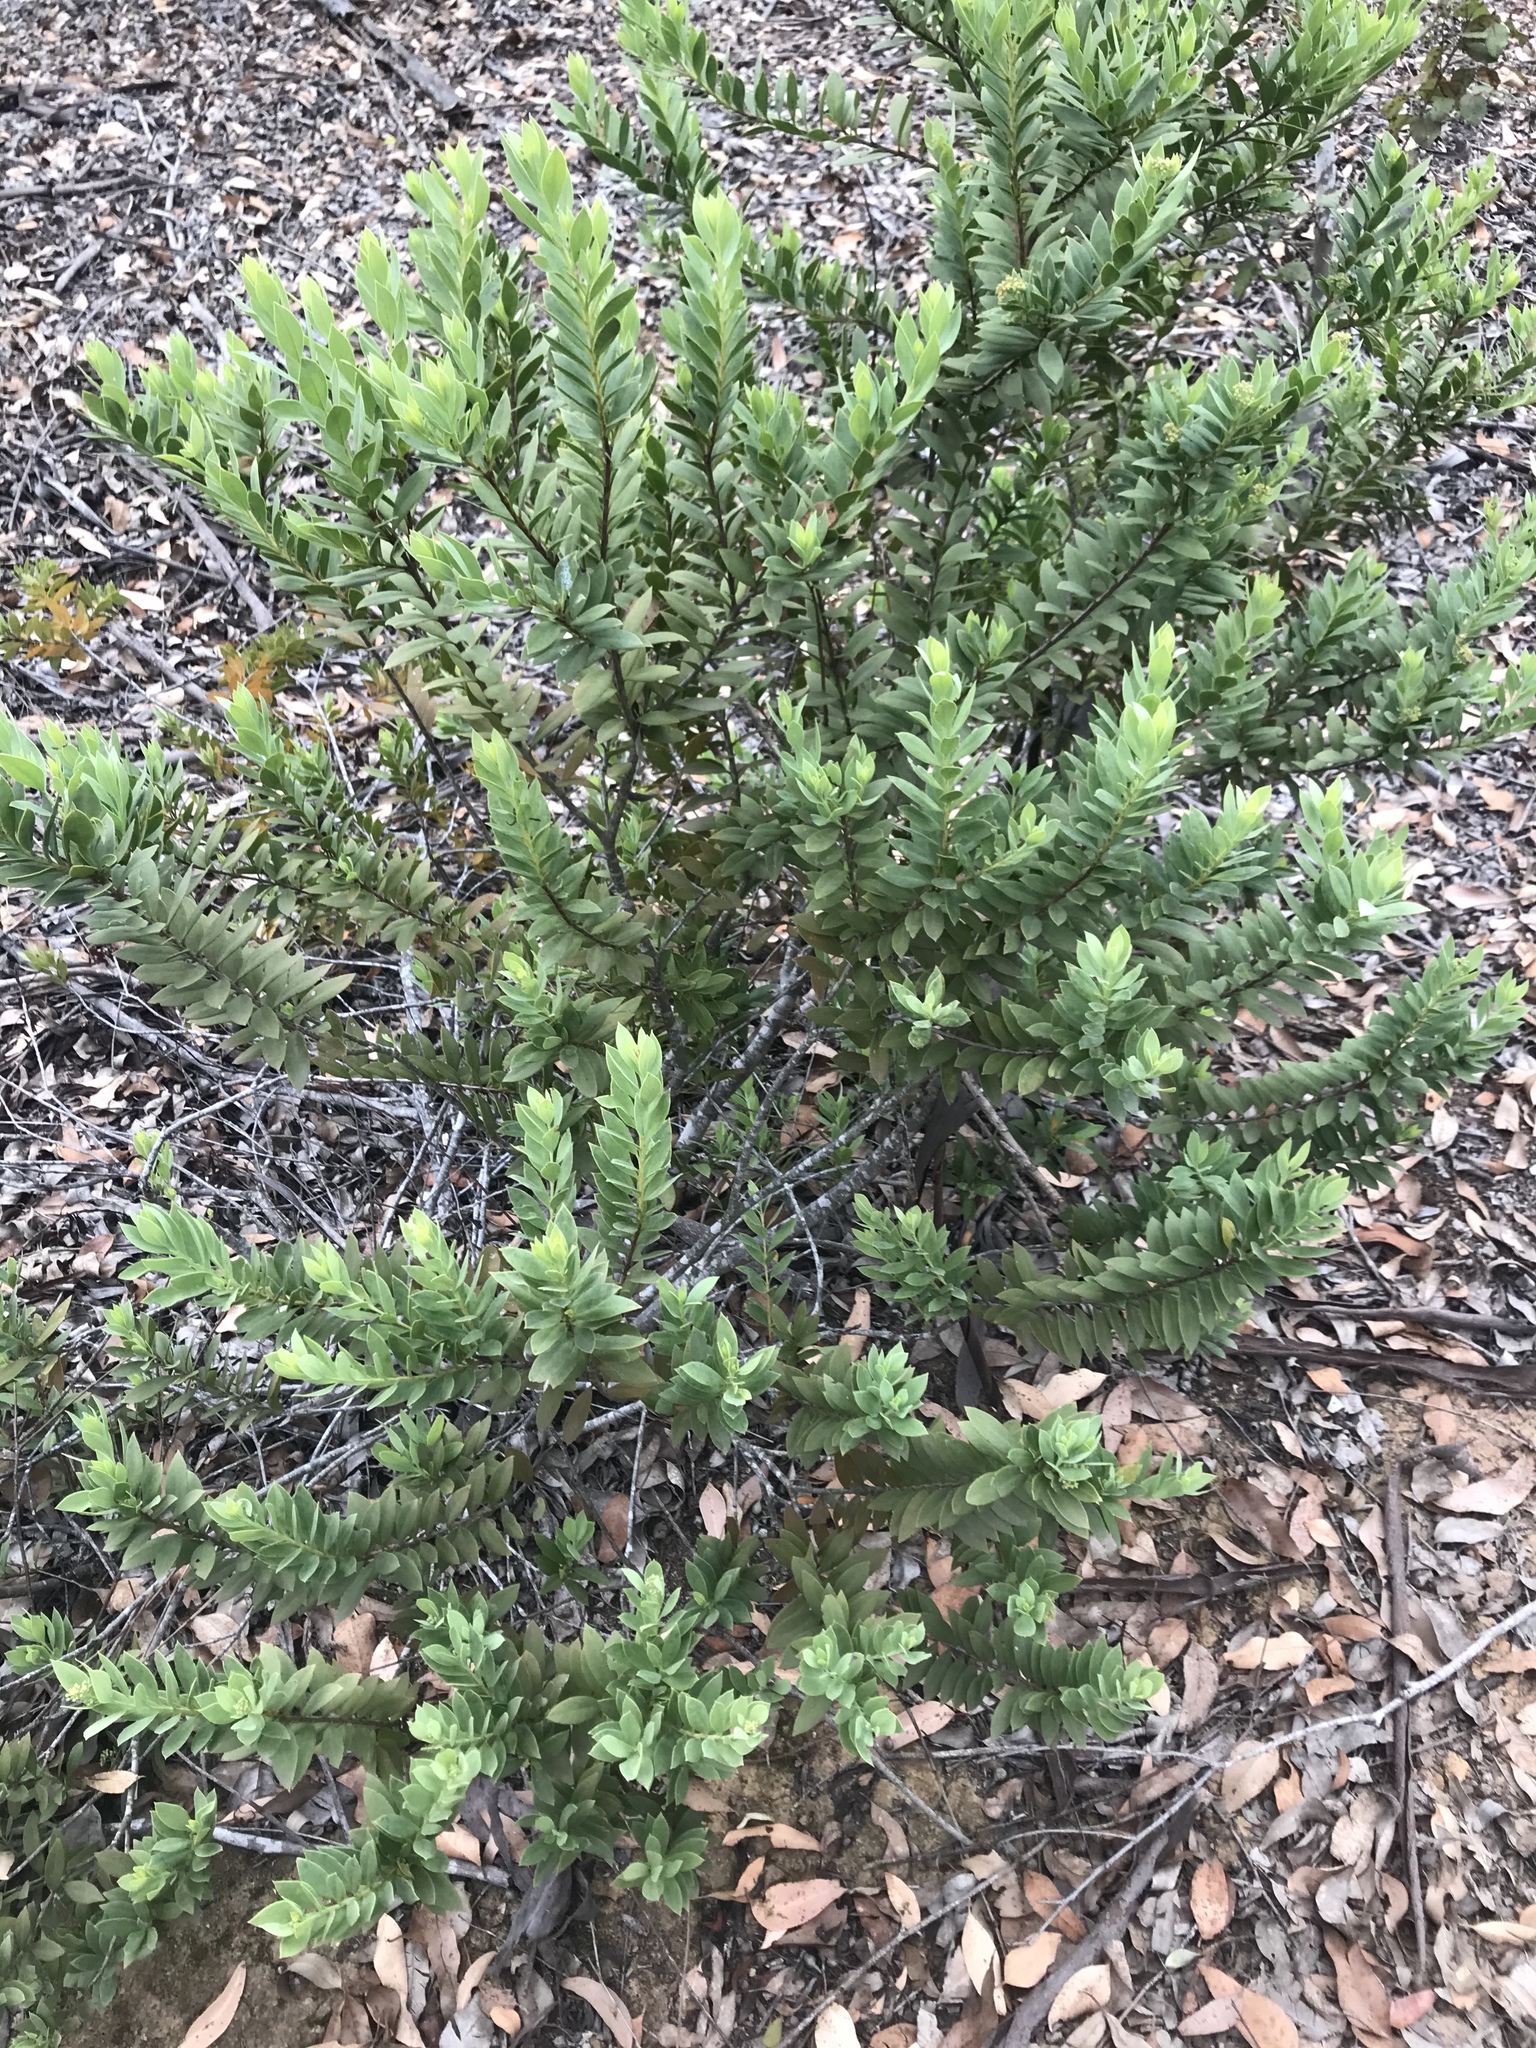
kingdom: Plantae
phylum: Tracheophyta
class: Magnoliopsida
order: Santalales
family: Santalaceae
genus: Osyris
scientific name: Osyris compressa
